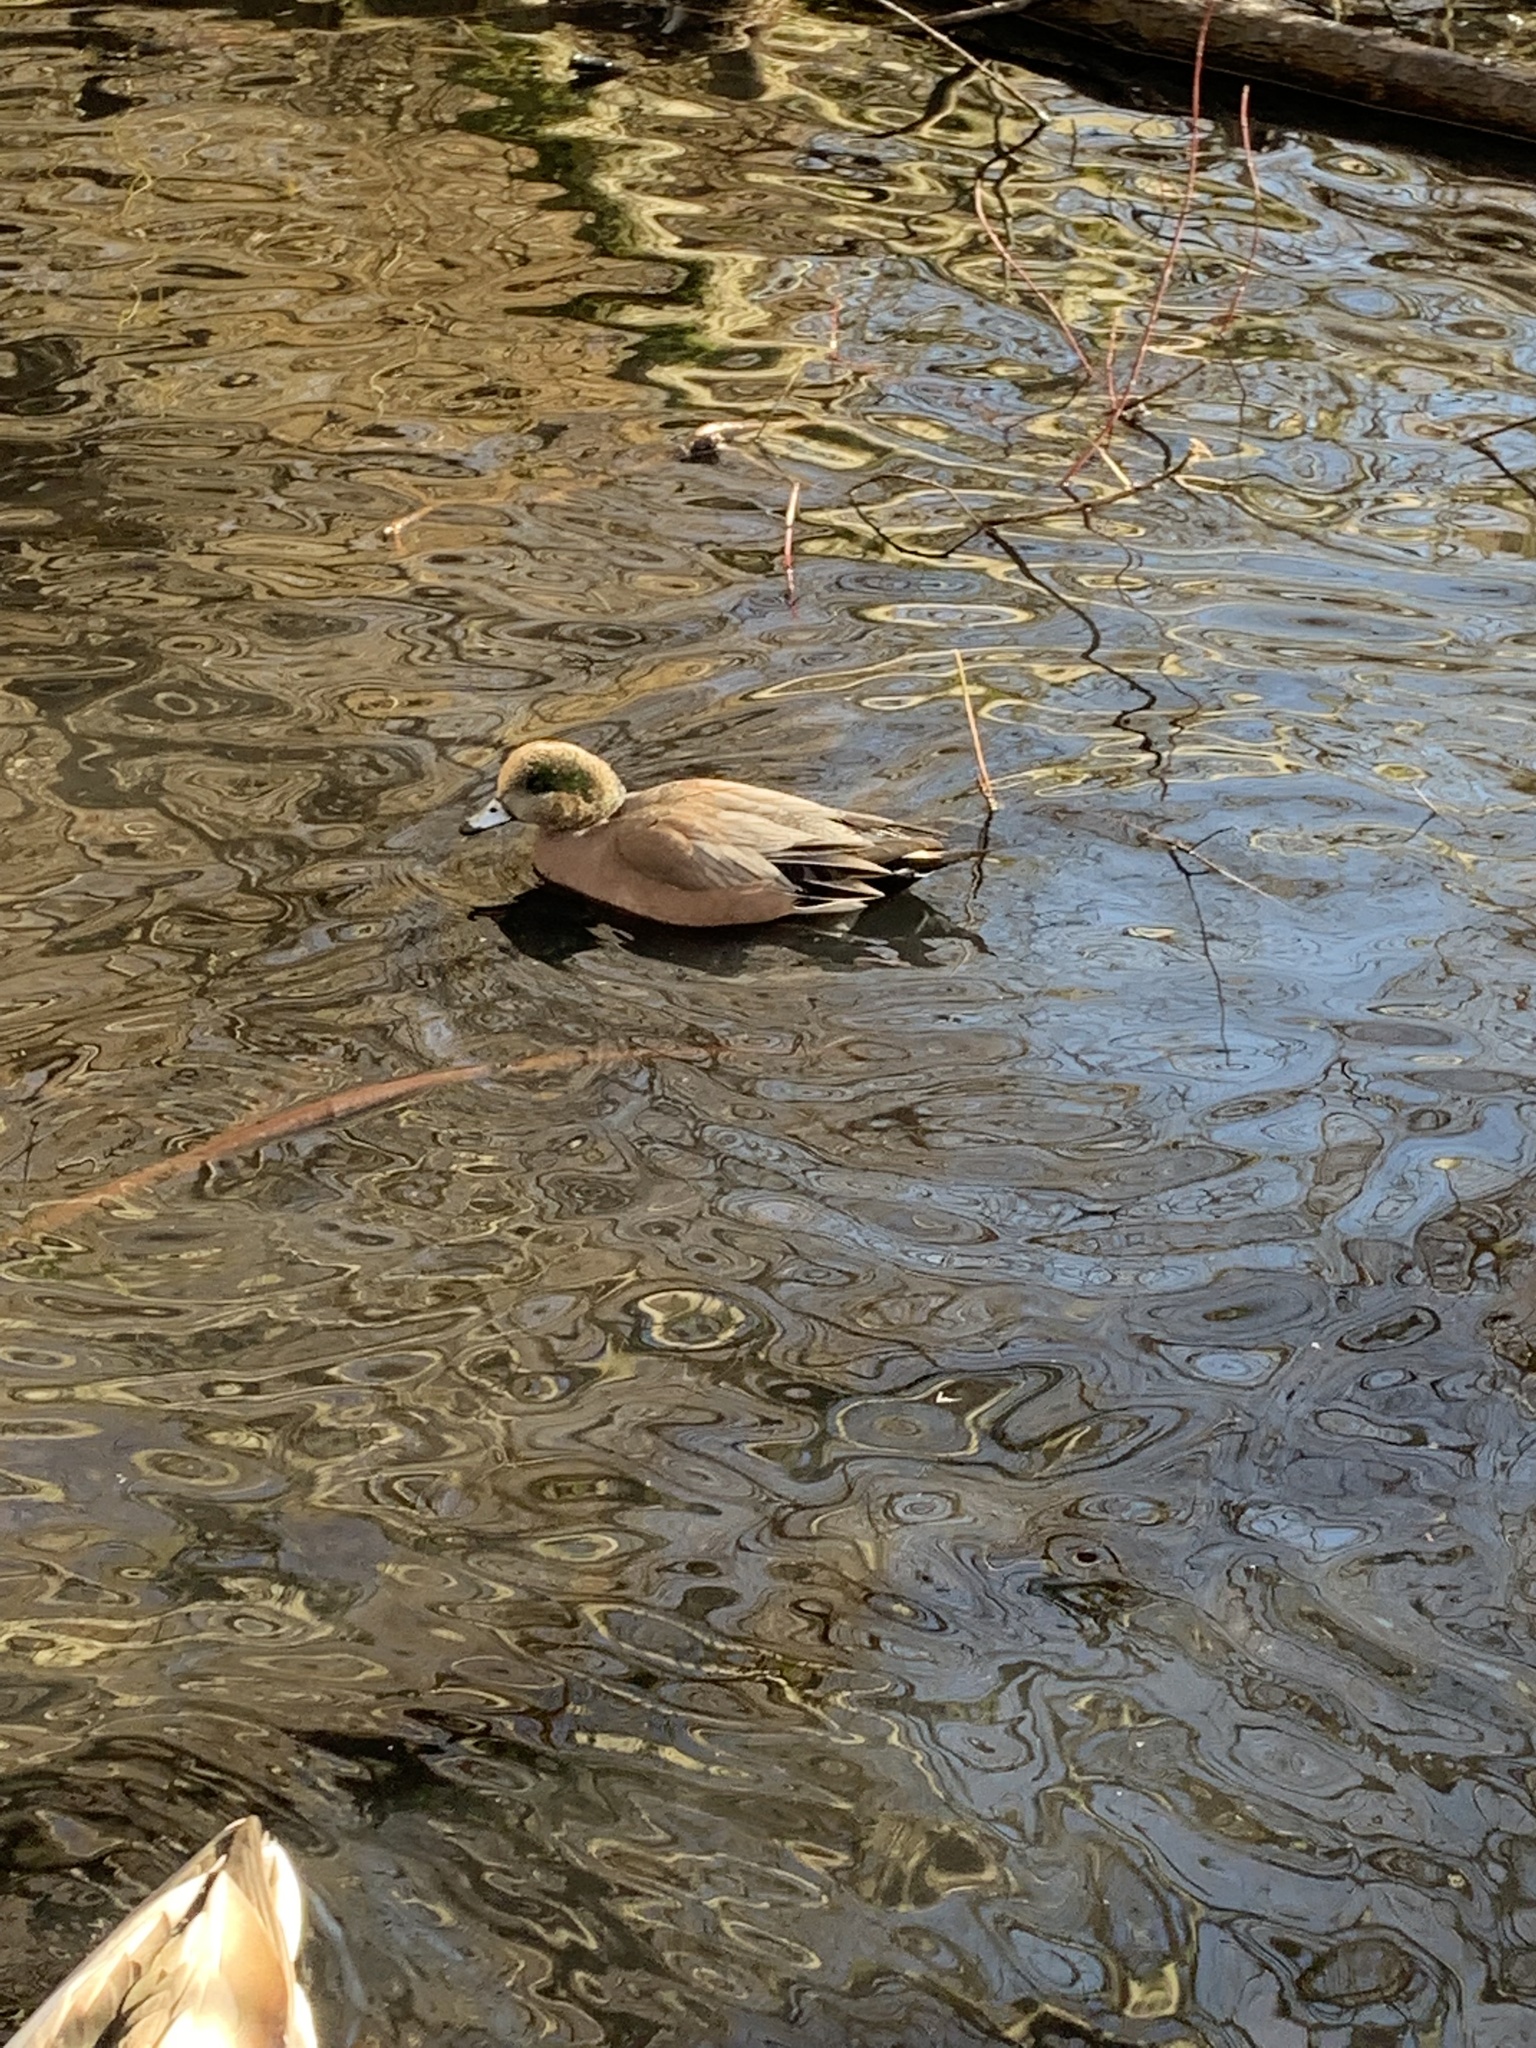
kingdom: Animalia
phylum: Chordata
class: Aves
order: Anseriformes
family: Anatidae
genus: Mareca
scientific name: Mareca americana
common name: American wigeon
